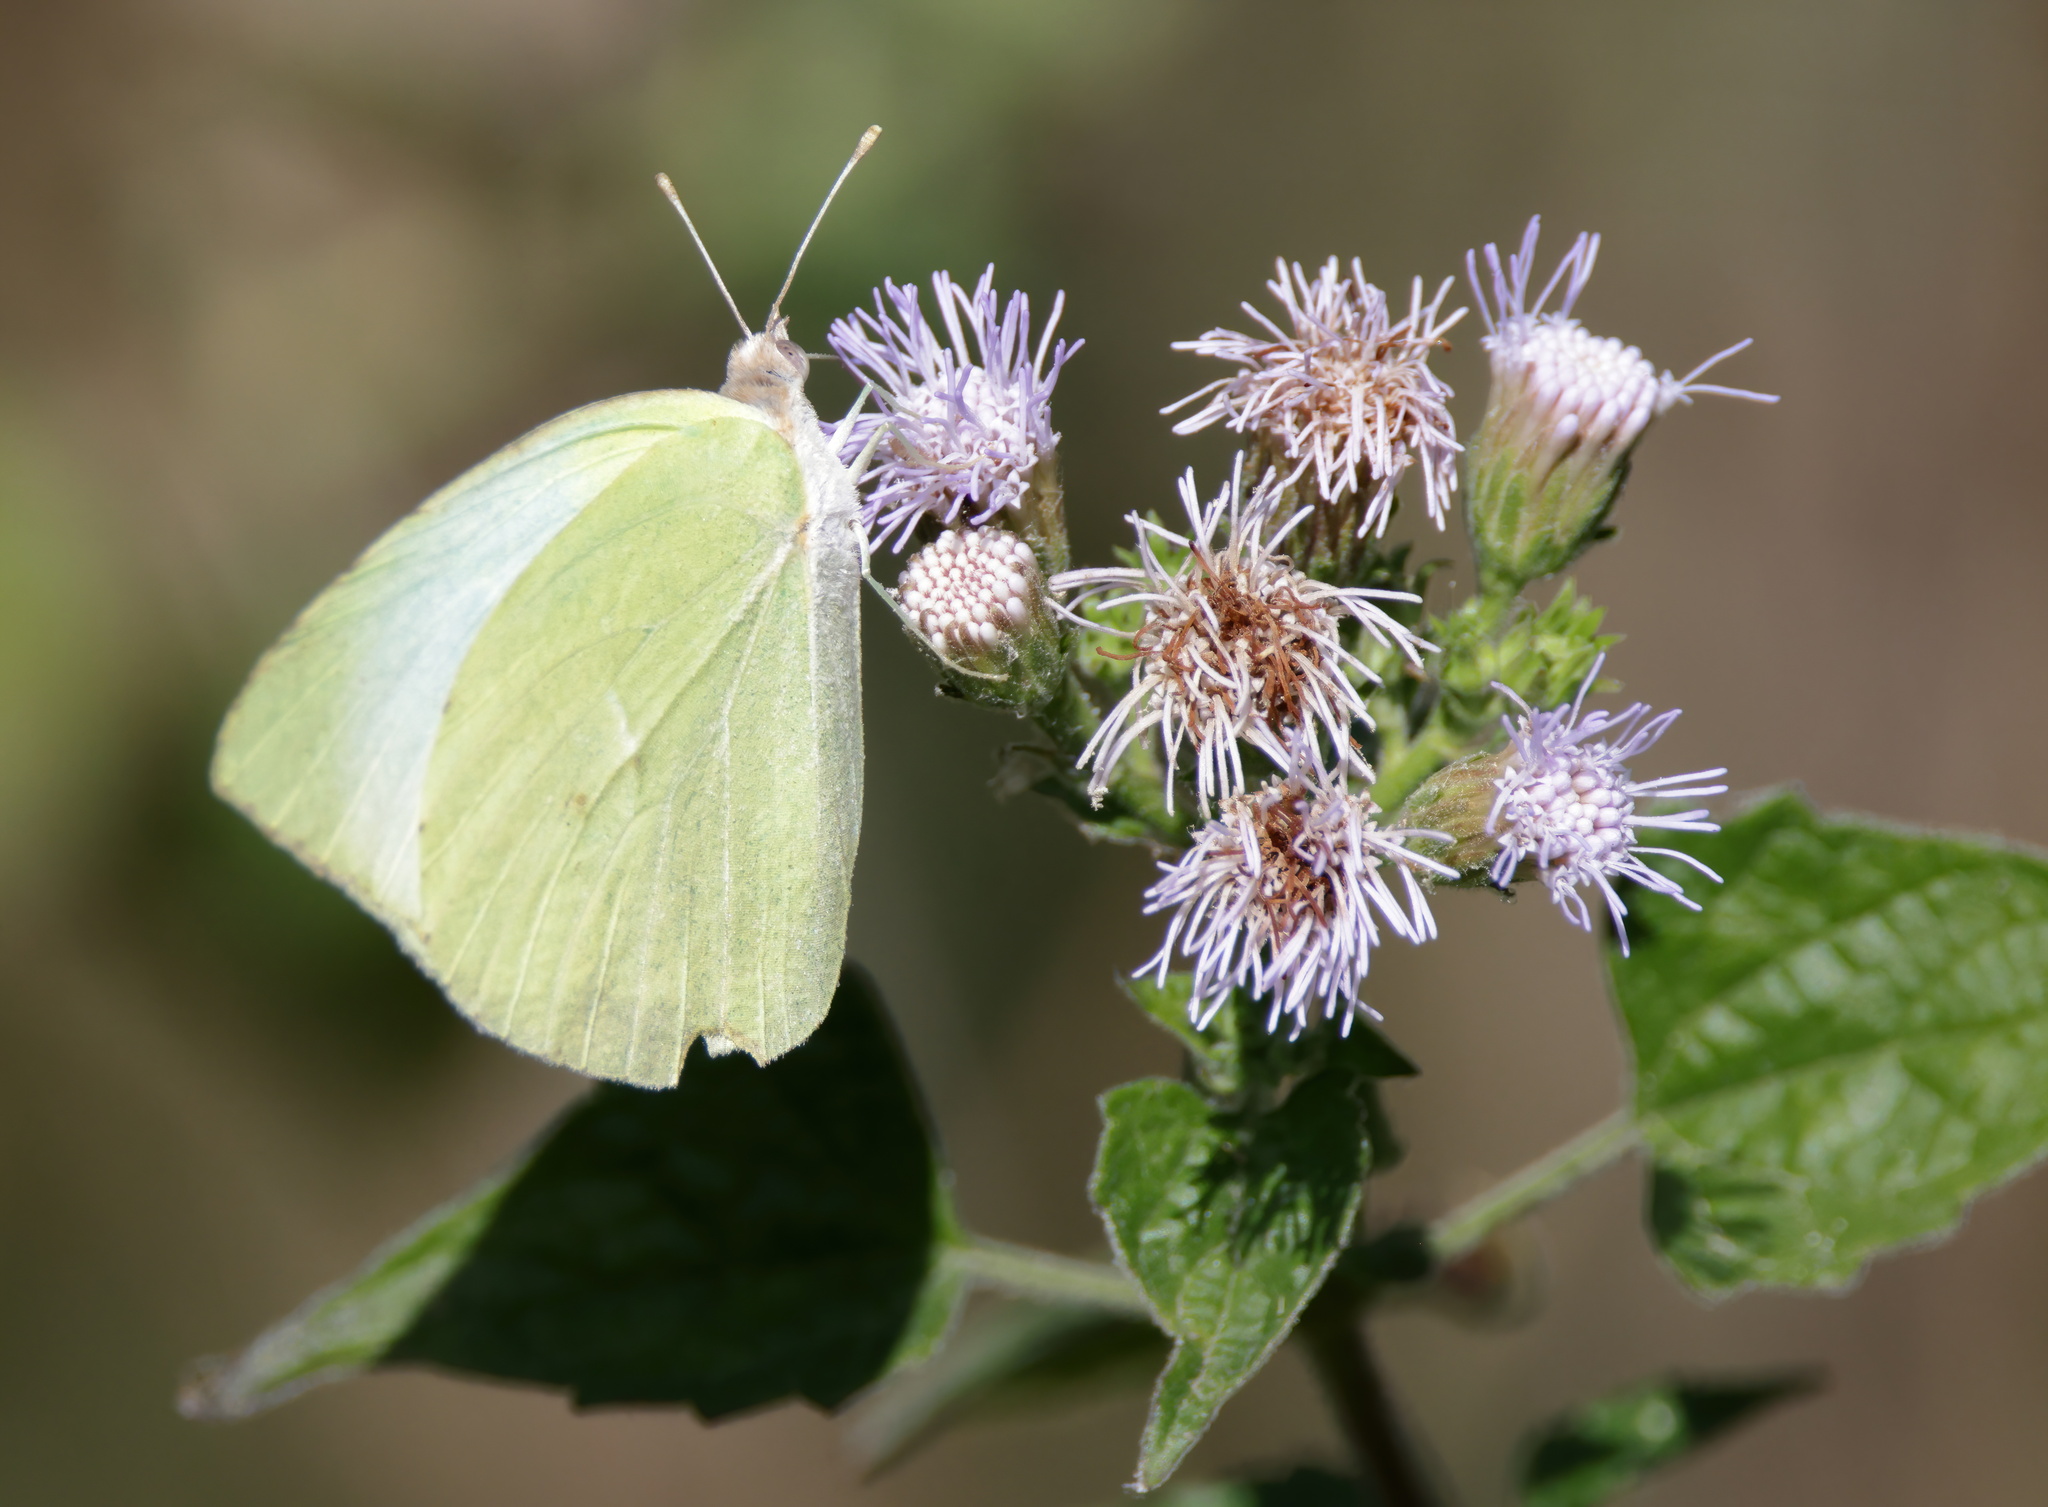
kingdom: Animalia
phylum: Arthropoda
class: Insecta
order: Lepidoptera
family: Pieridae
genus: Kricogonia
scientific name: Kricogonia lyside
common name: Guayacan sulphur,
